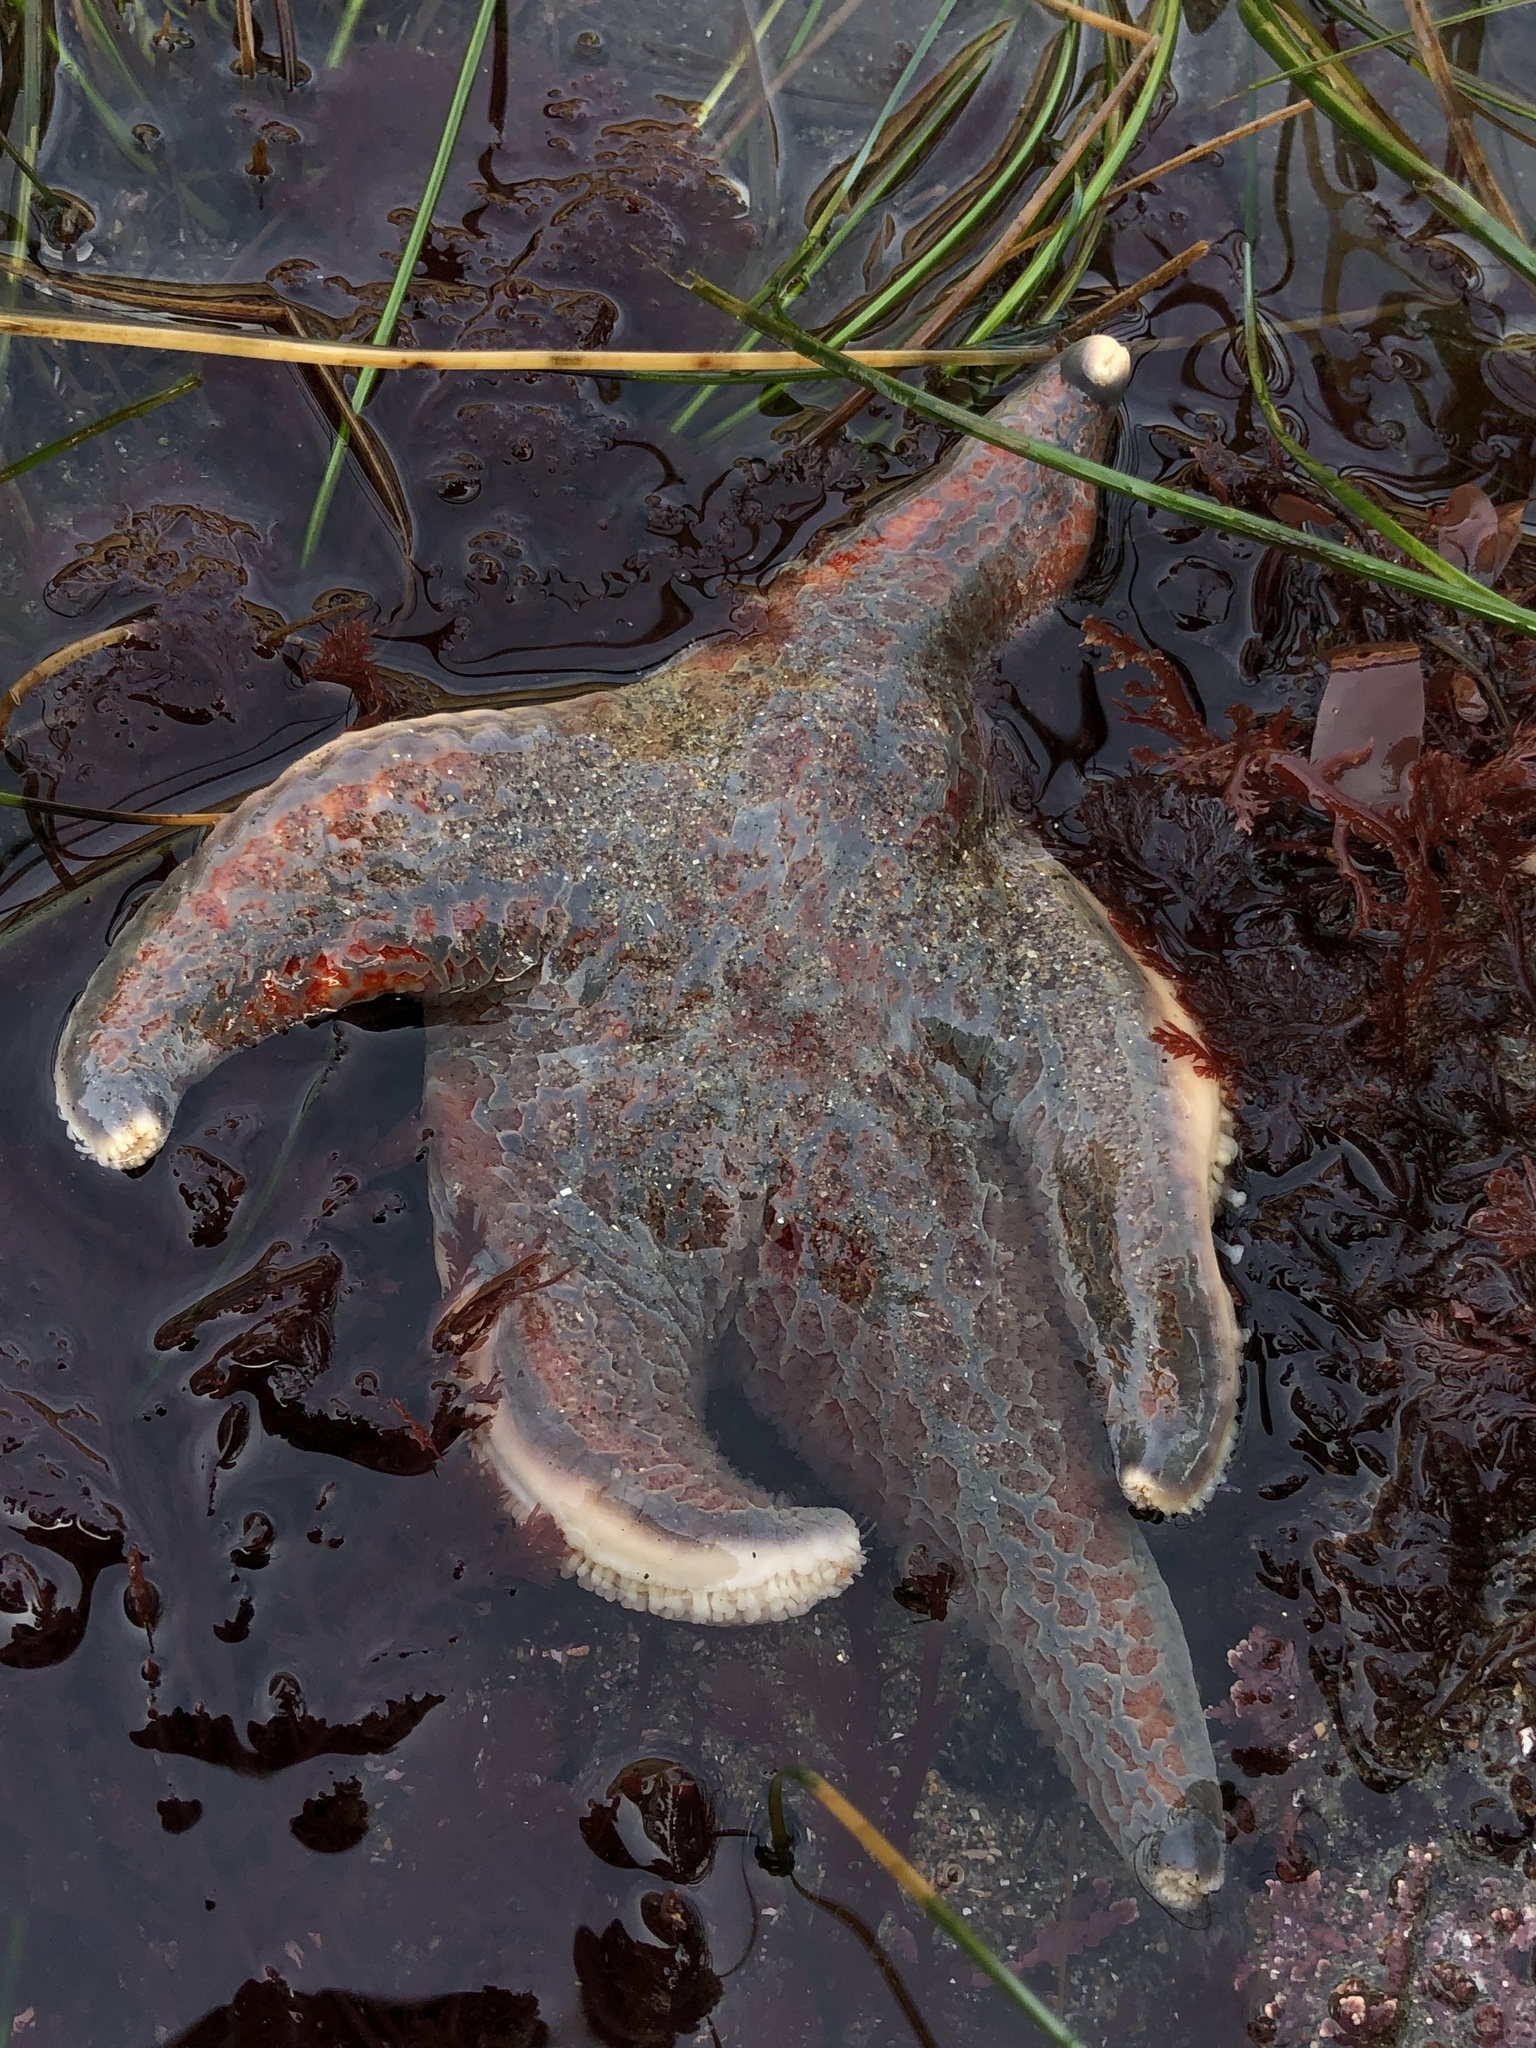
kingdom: Animalia
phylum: Echinodermata
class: Asteroidea
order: Valvatida
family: Asteropseidae
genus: Dermasterias
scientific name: Dermasterias imbricata
